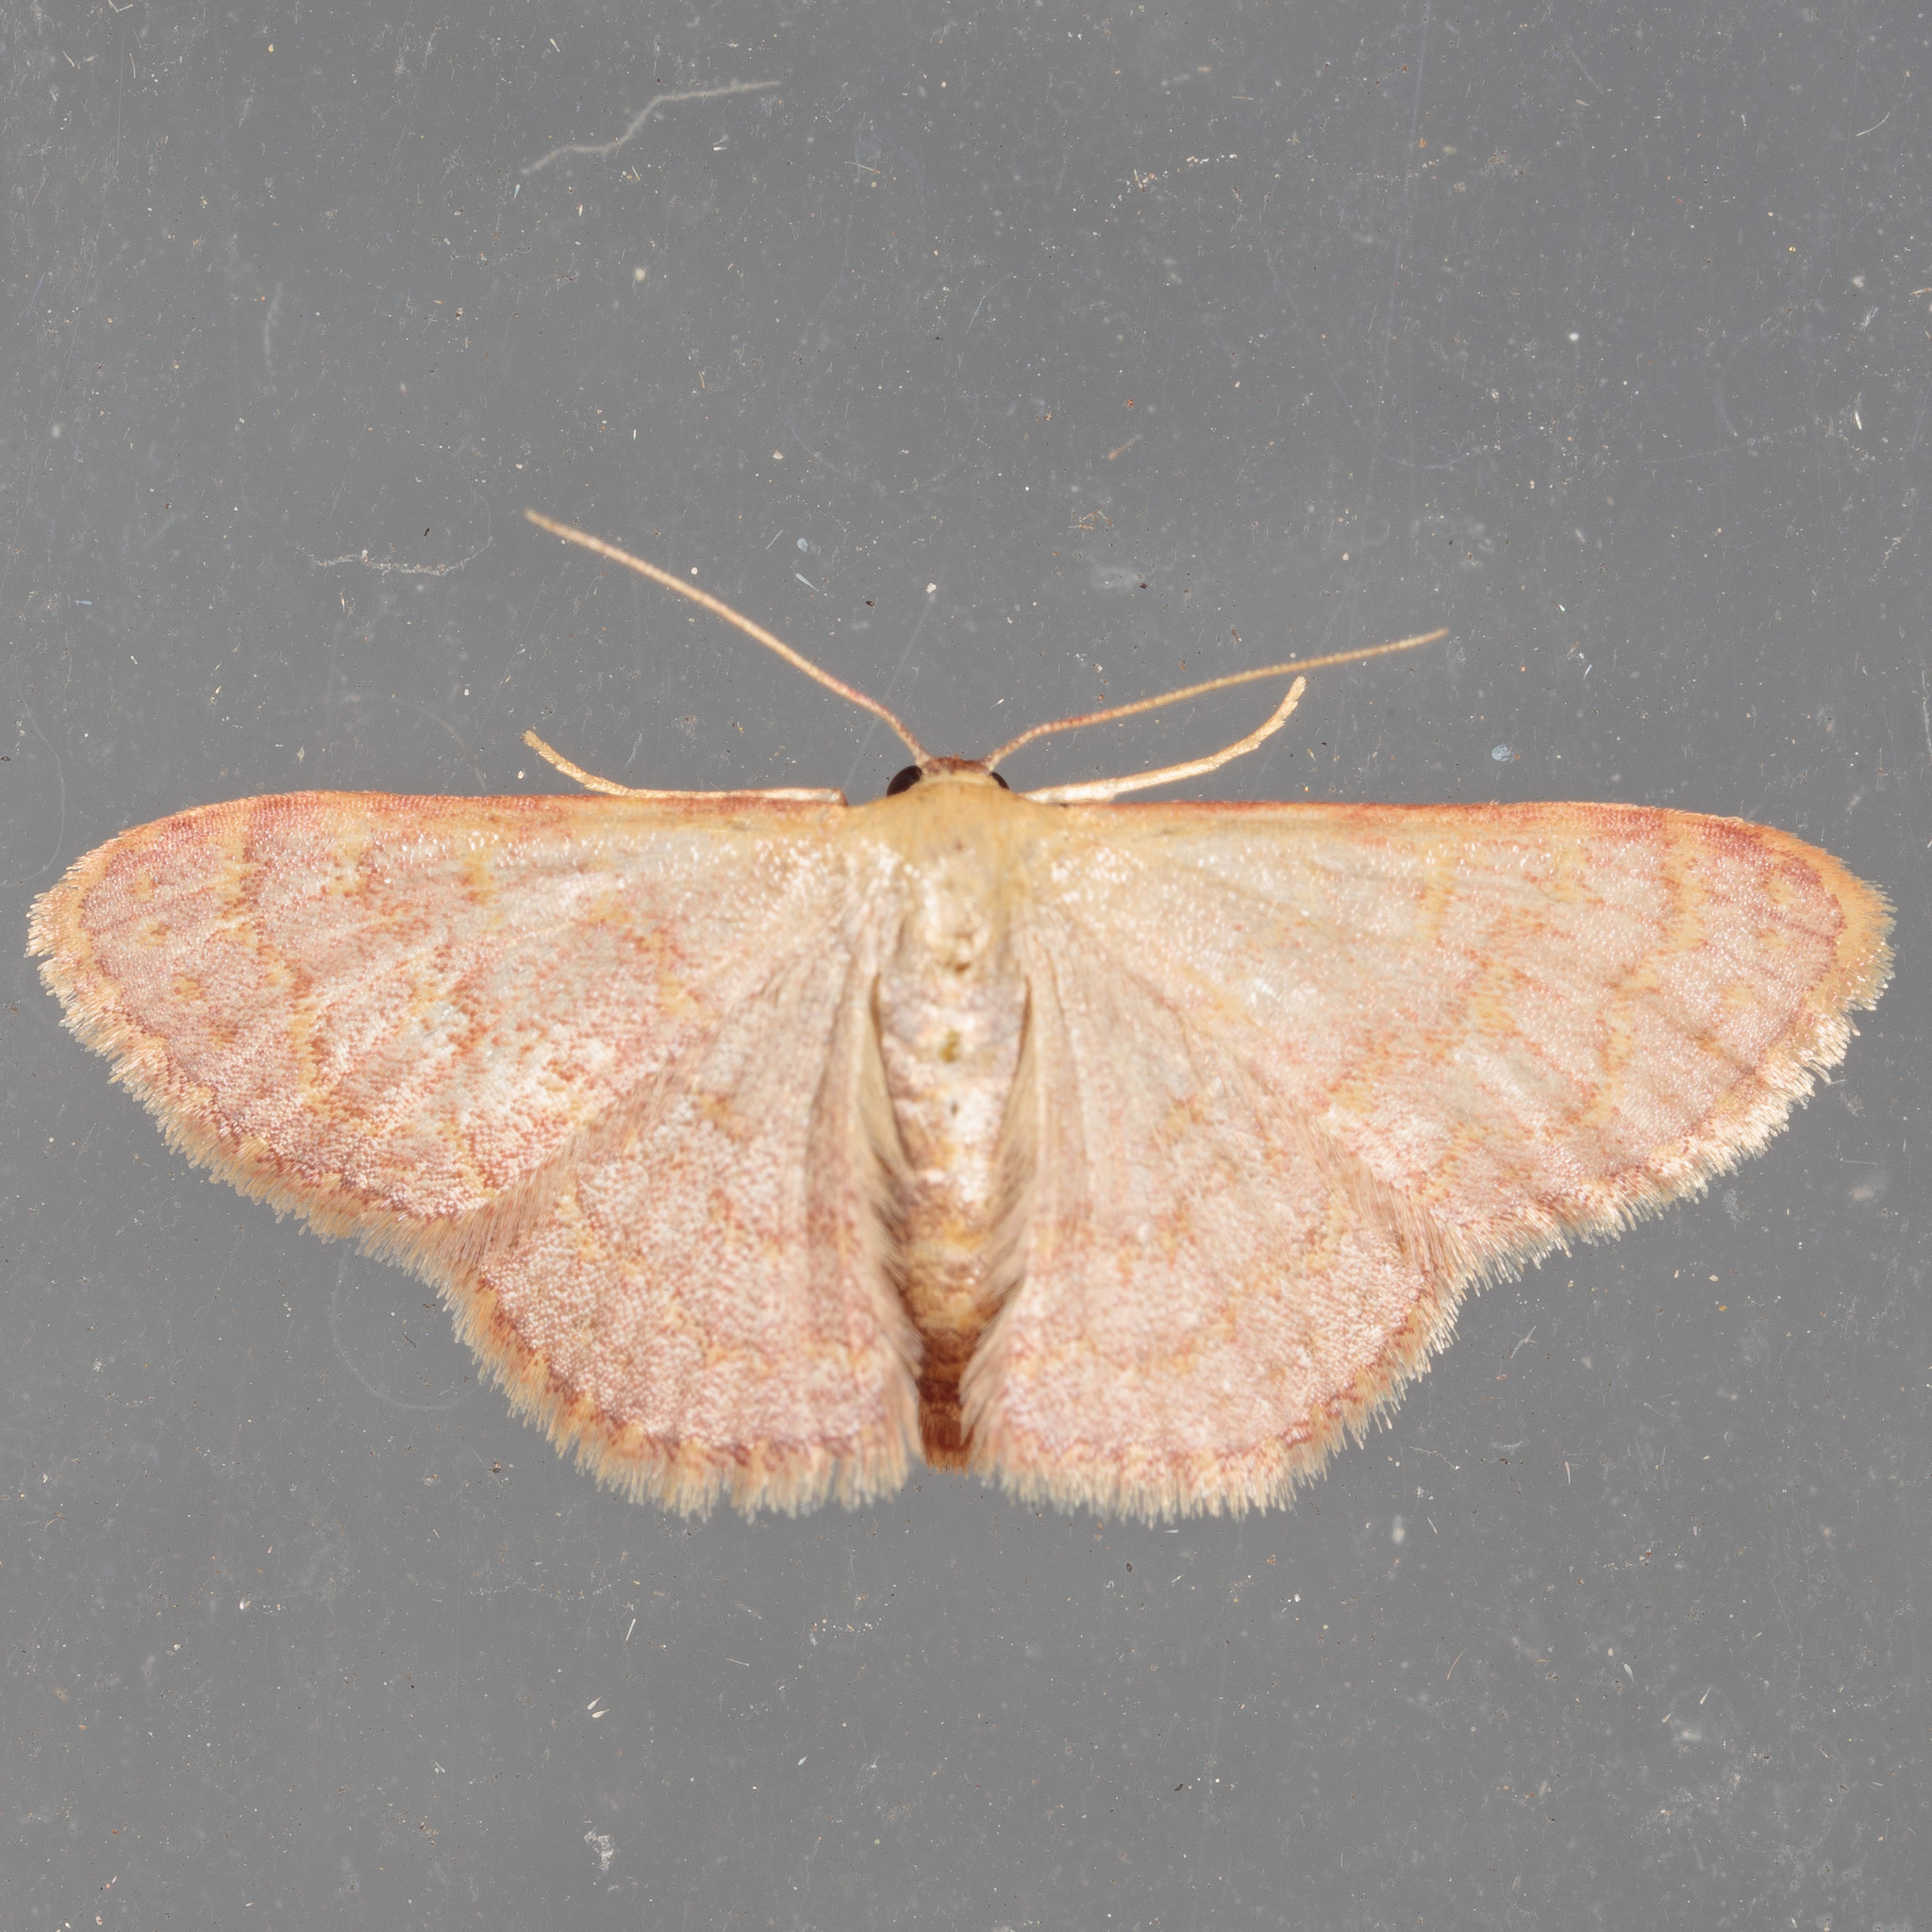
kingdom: Animalia
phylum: Arthropoda
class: Insecta
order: Lepidoptera
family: Geometridae
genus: Leptostales
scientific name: Leptostales pannaria
